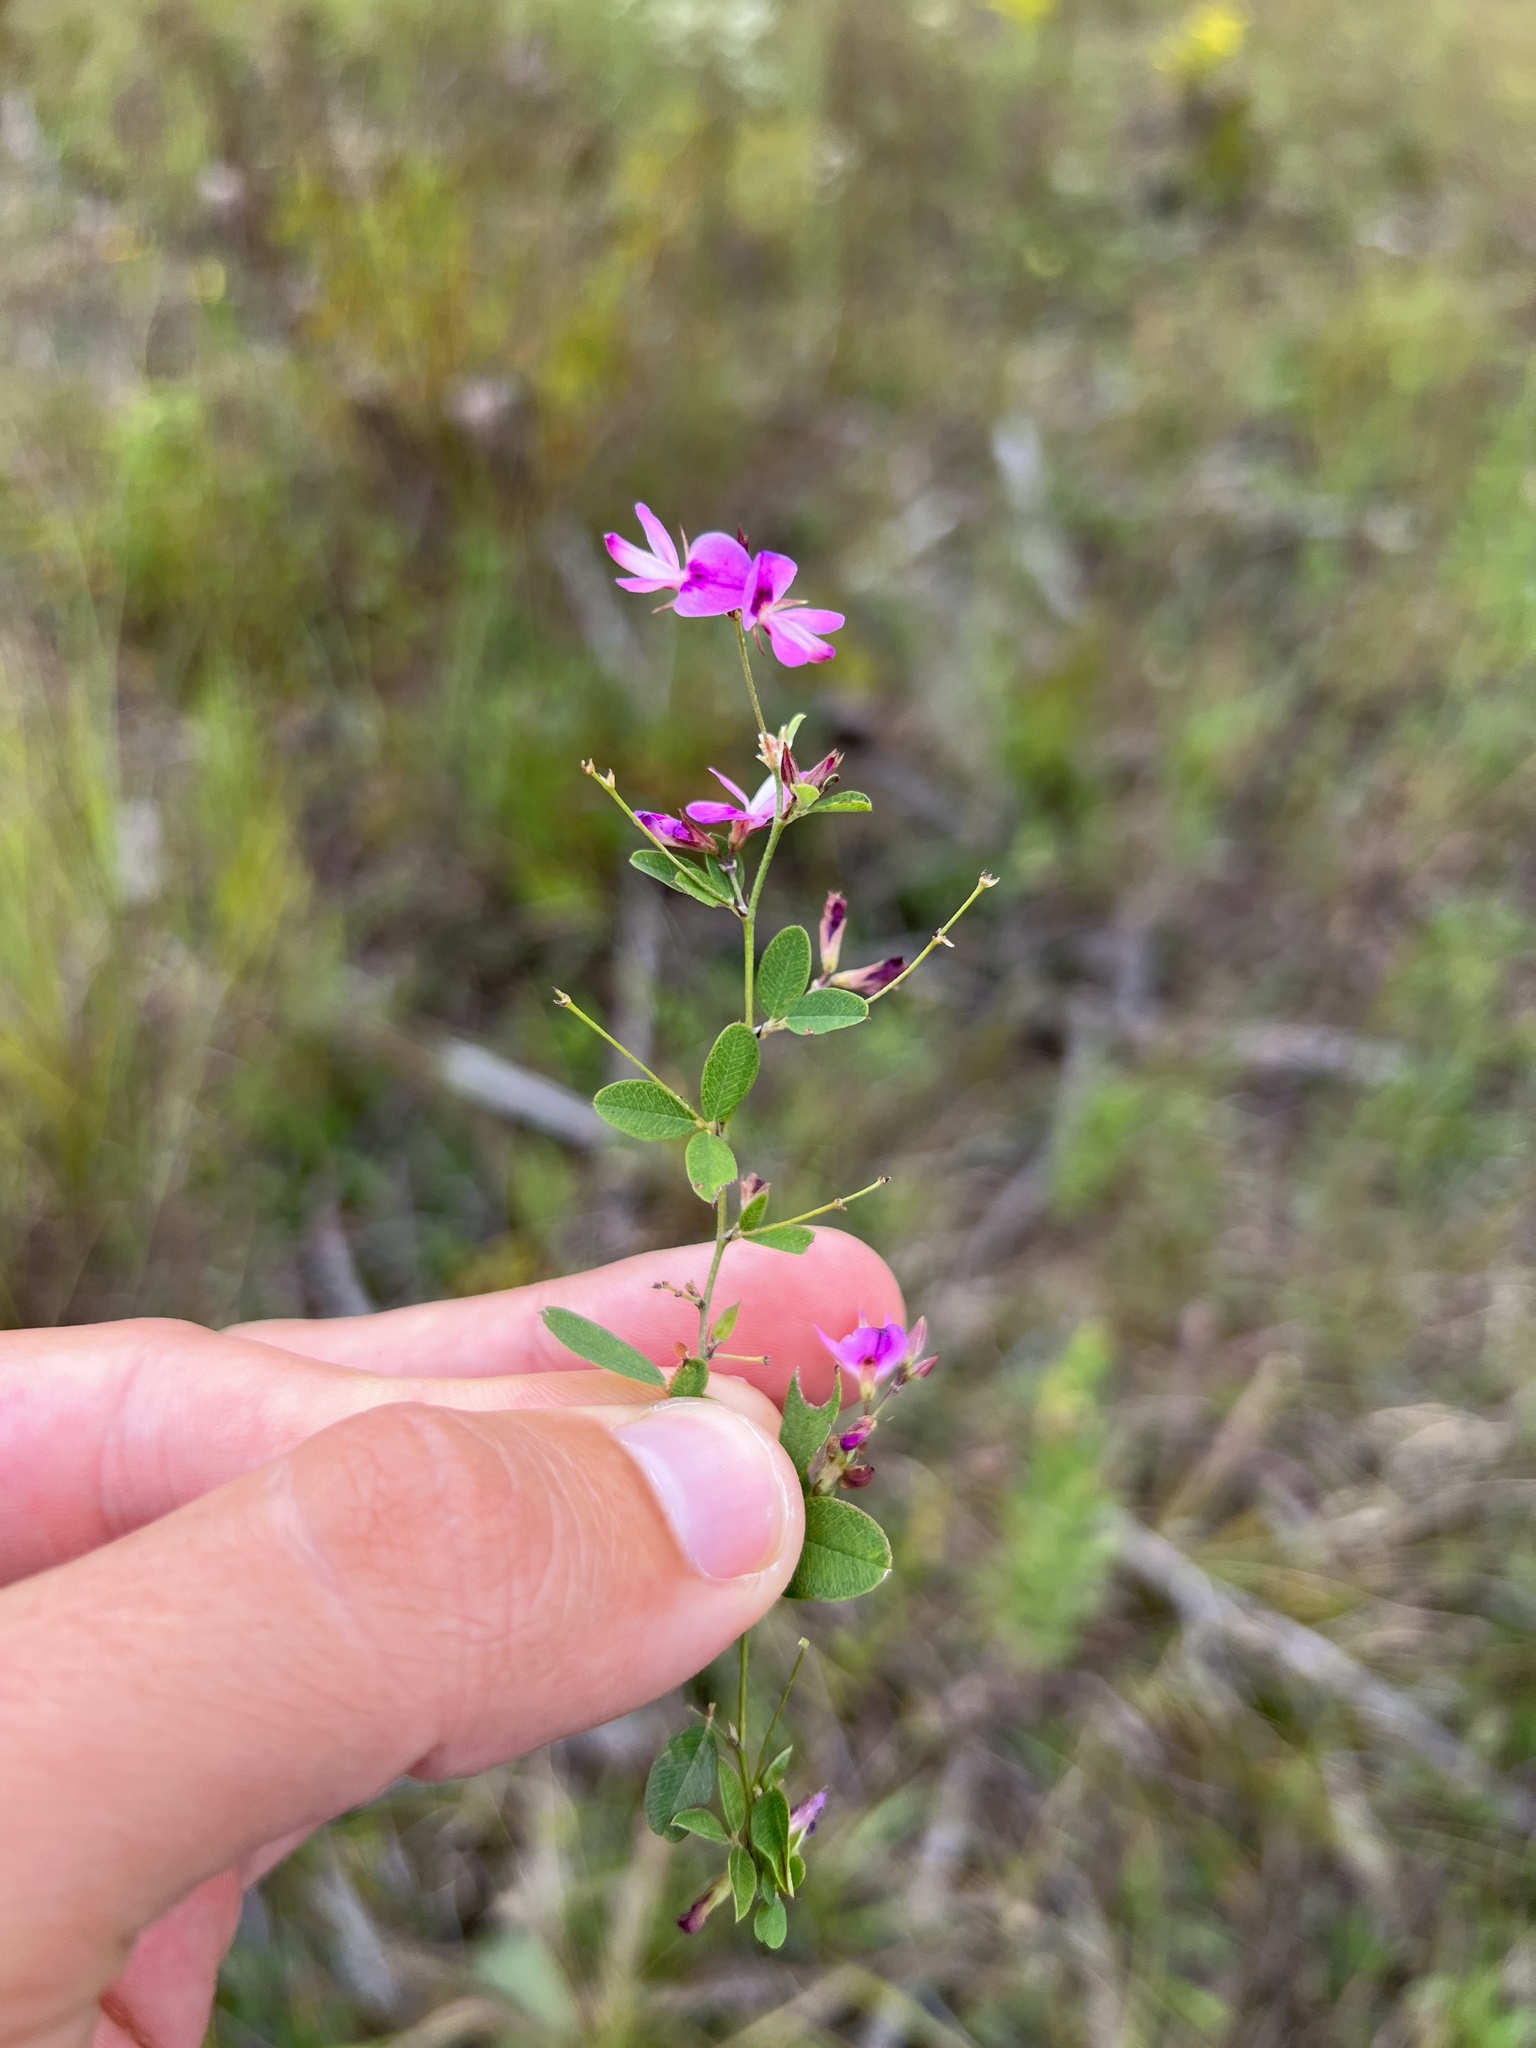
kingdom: Plantae
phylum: Tracheophyta
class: Magnoliopsida
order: Fabales
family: Fabaceae
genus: Lespedeza
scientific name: Lespedeza
